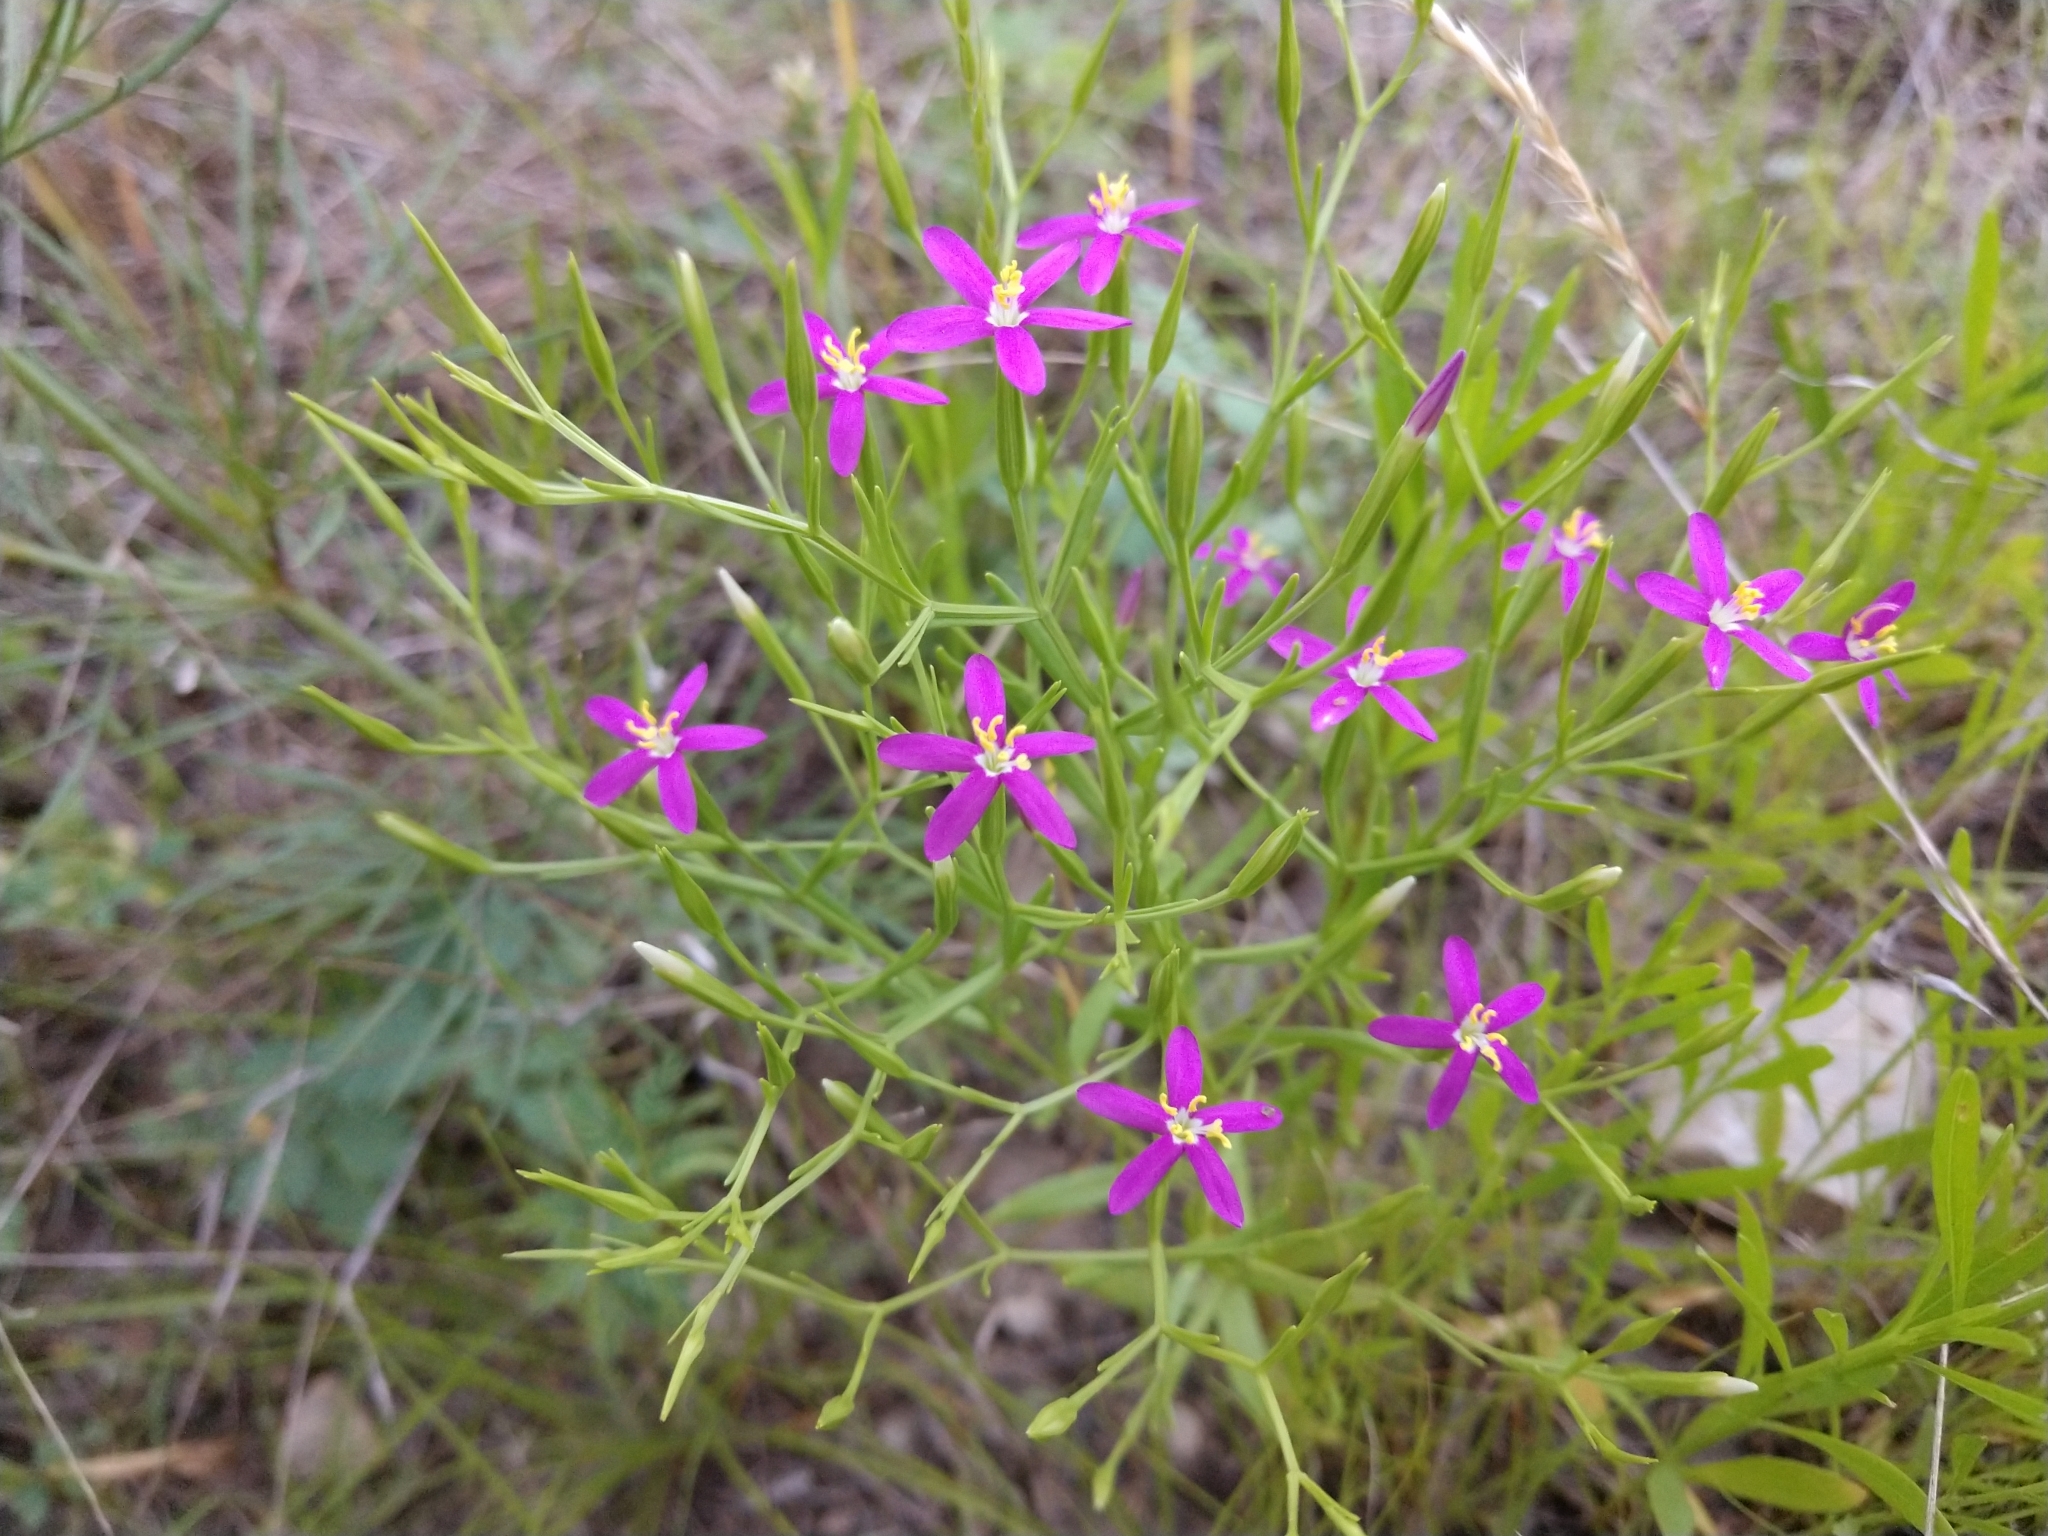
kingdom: Plantae
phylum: Tracheophyta
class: Magnoliopsida
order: Gentianales
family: Gentianaceae
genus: Zeltnera
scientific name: Zeltnera texensis
